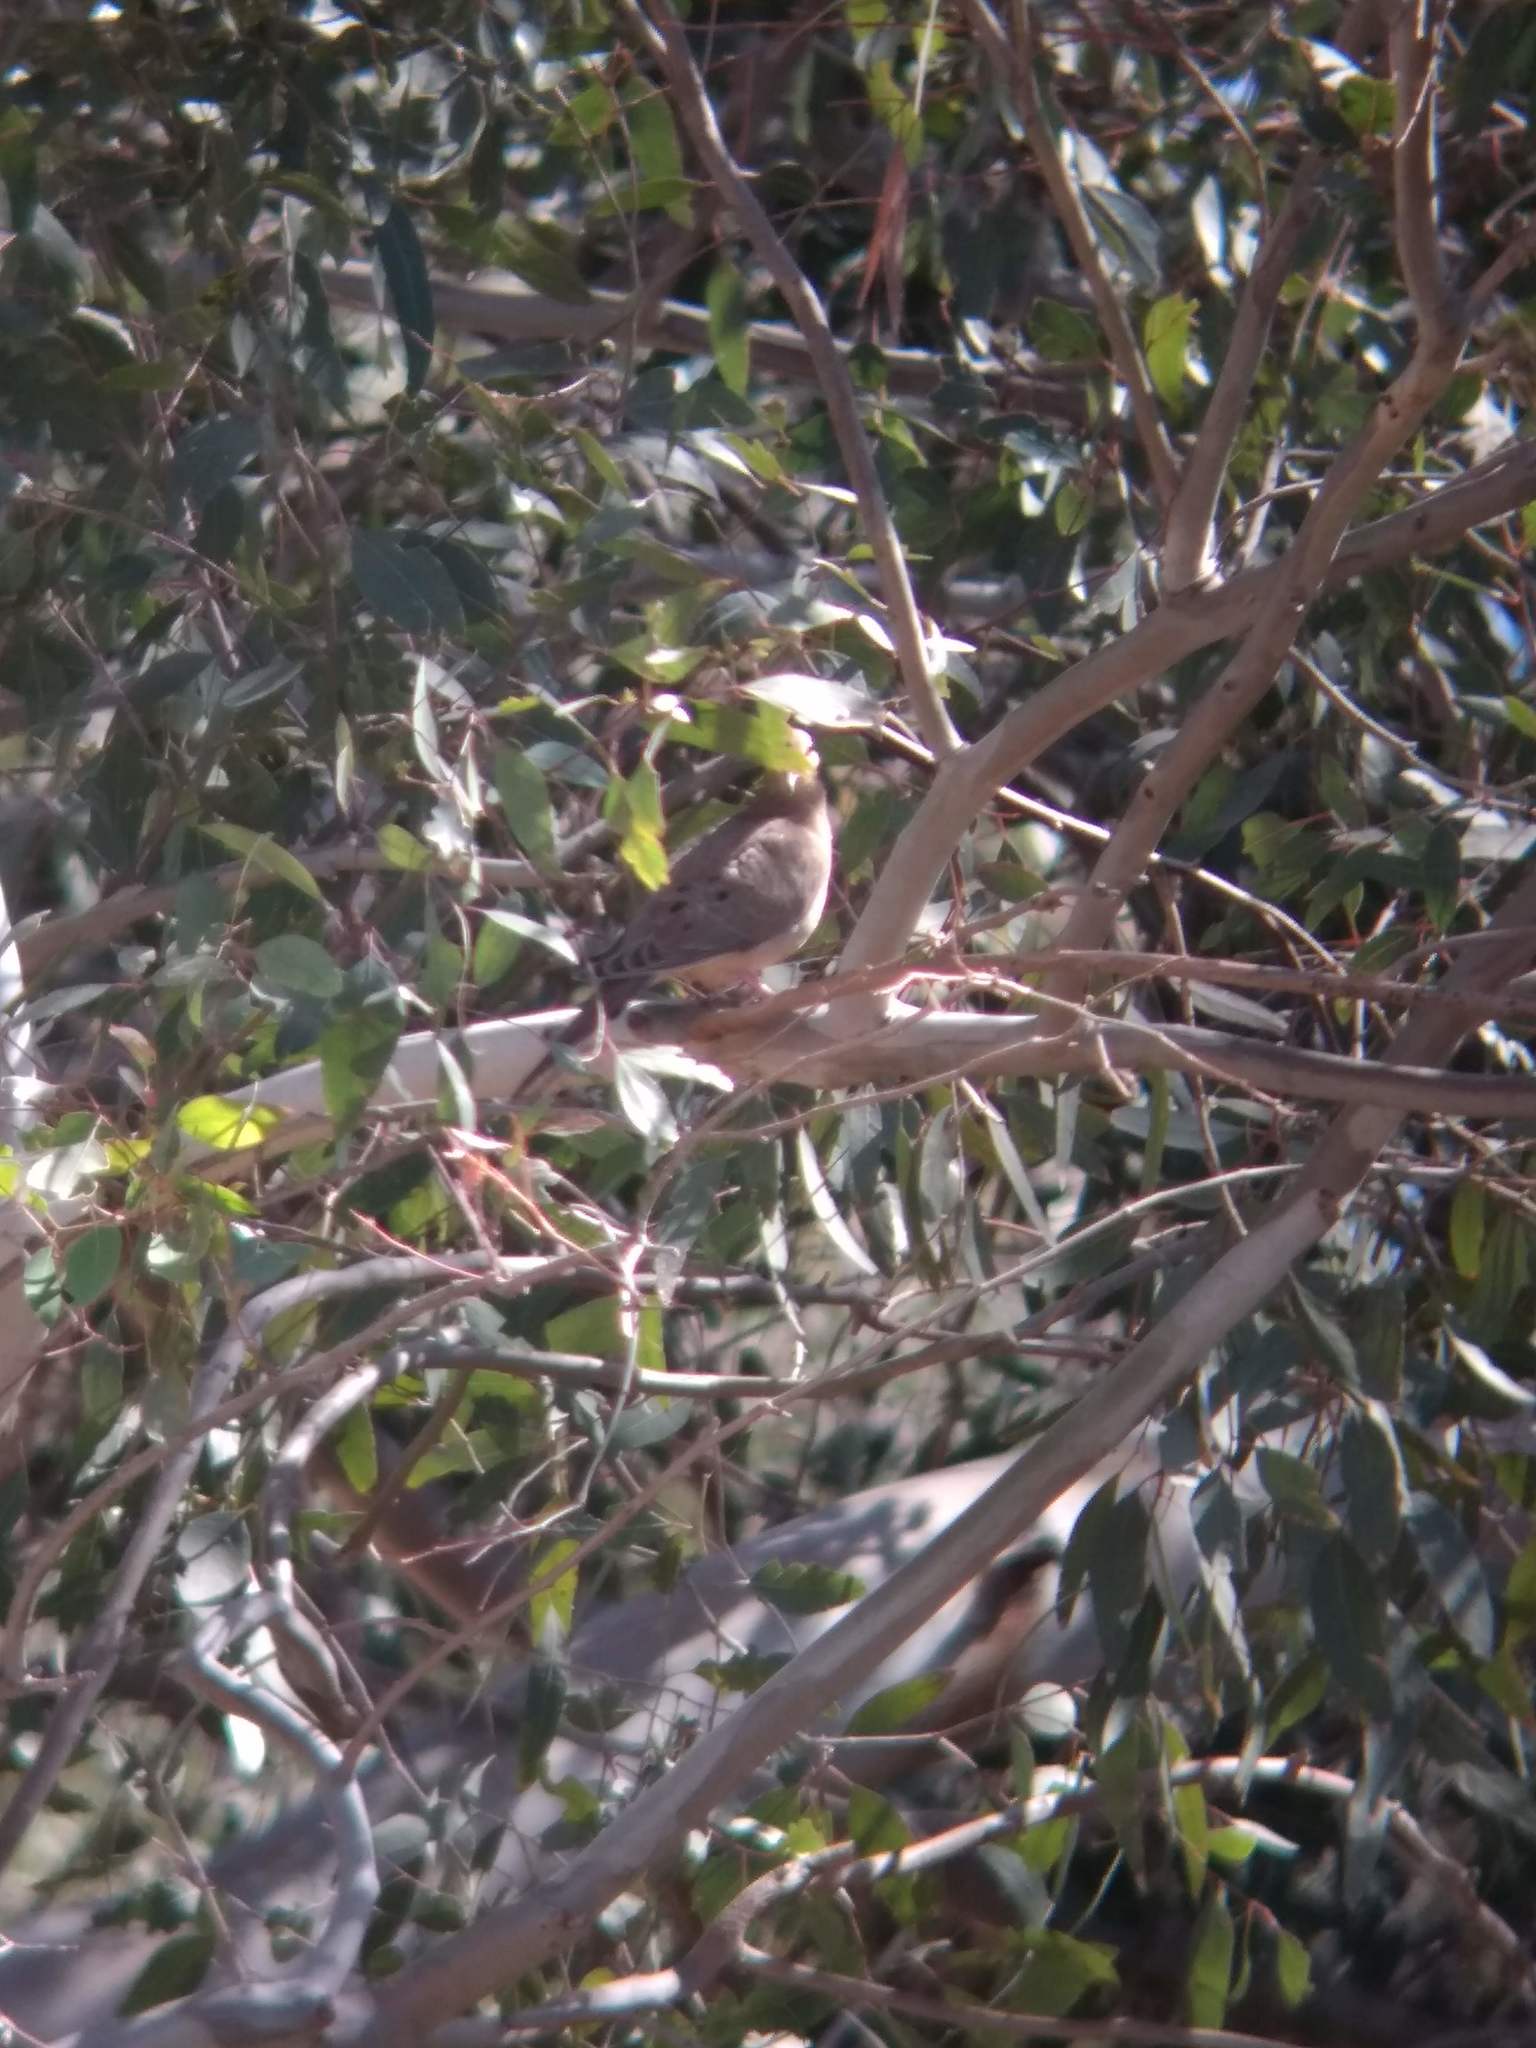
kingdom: Animalia
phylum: Chordata
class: Aves
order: Columbiformes
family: Columbidae
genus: Zenaida
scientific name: Zenaida macroura
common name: Mourning dove
